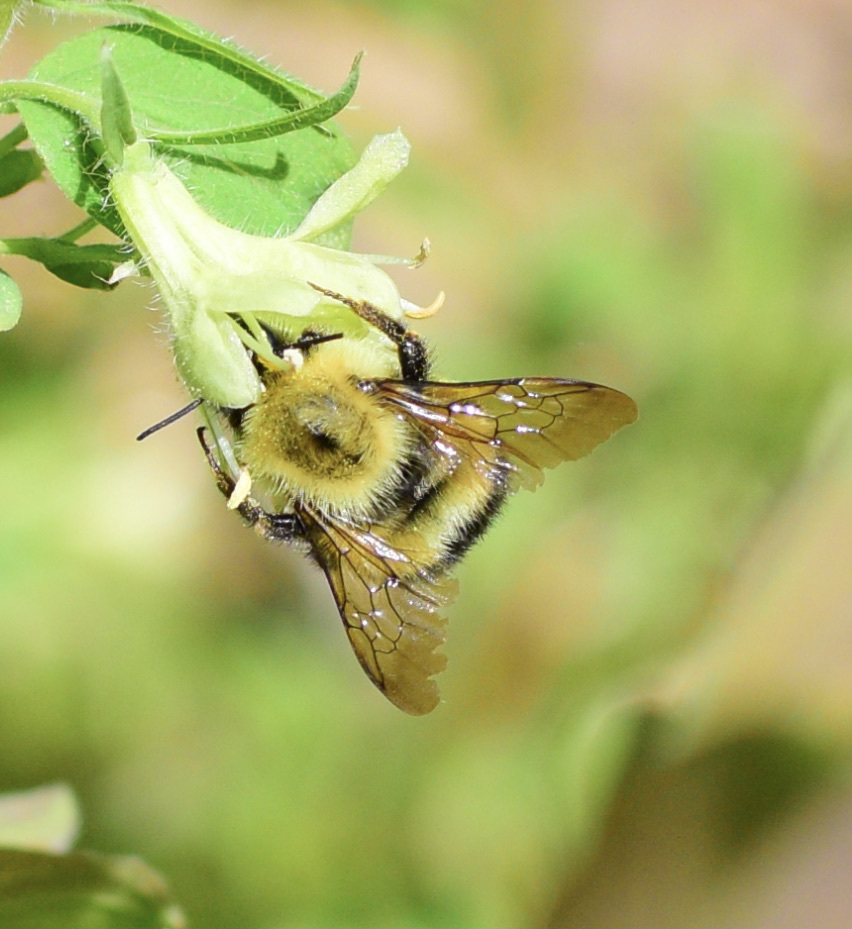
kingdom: Animalia
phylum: Arthropoda
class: Insecta
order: Hymenoptera
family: Apidae
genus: Bombus
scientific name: Bombus perplexus
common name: Confusing bumble bee
